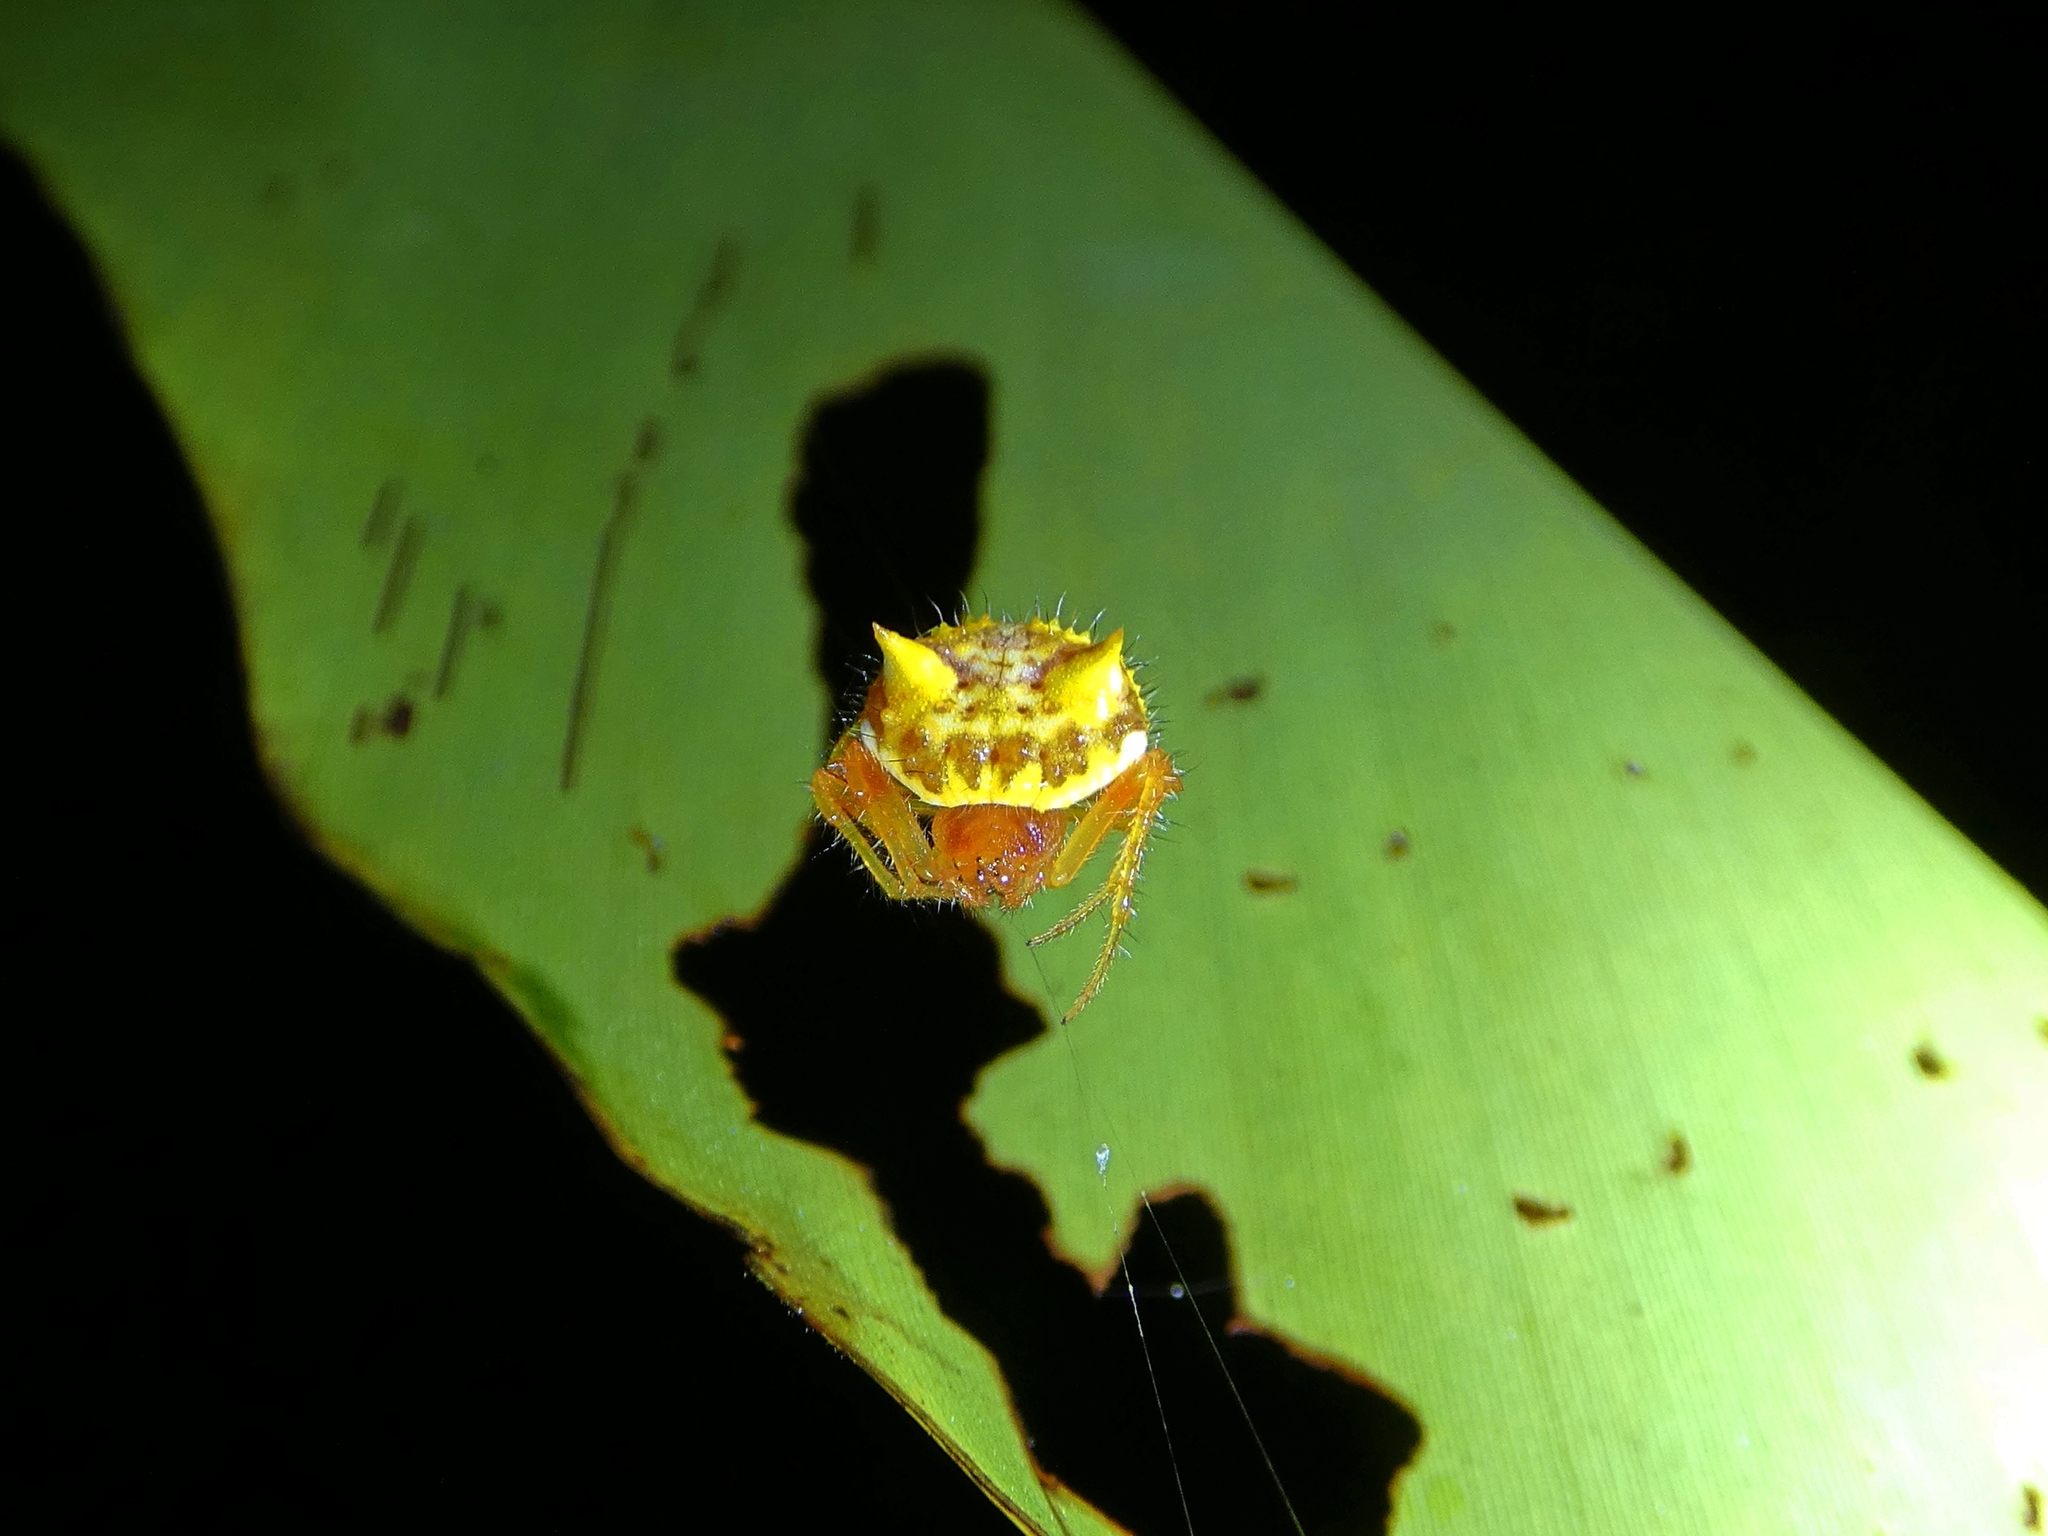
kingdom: Animalia
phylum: Arthropoda
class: Arachnida
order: Araneae
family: Araneidae
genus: Poecilopachys
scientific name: Poecilopachys australasia
